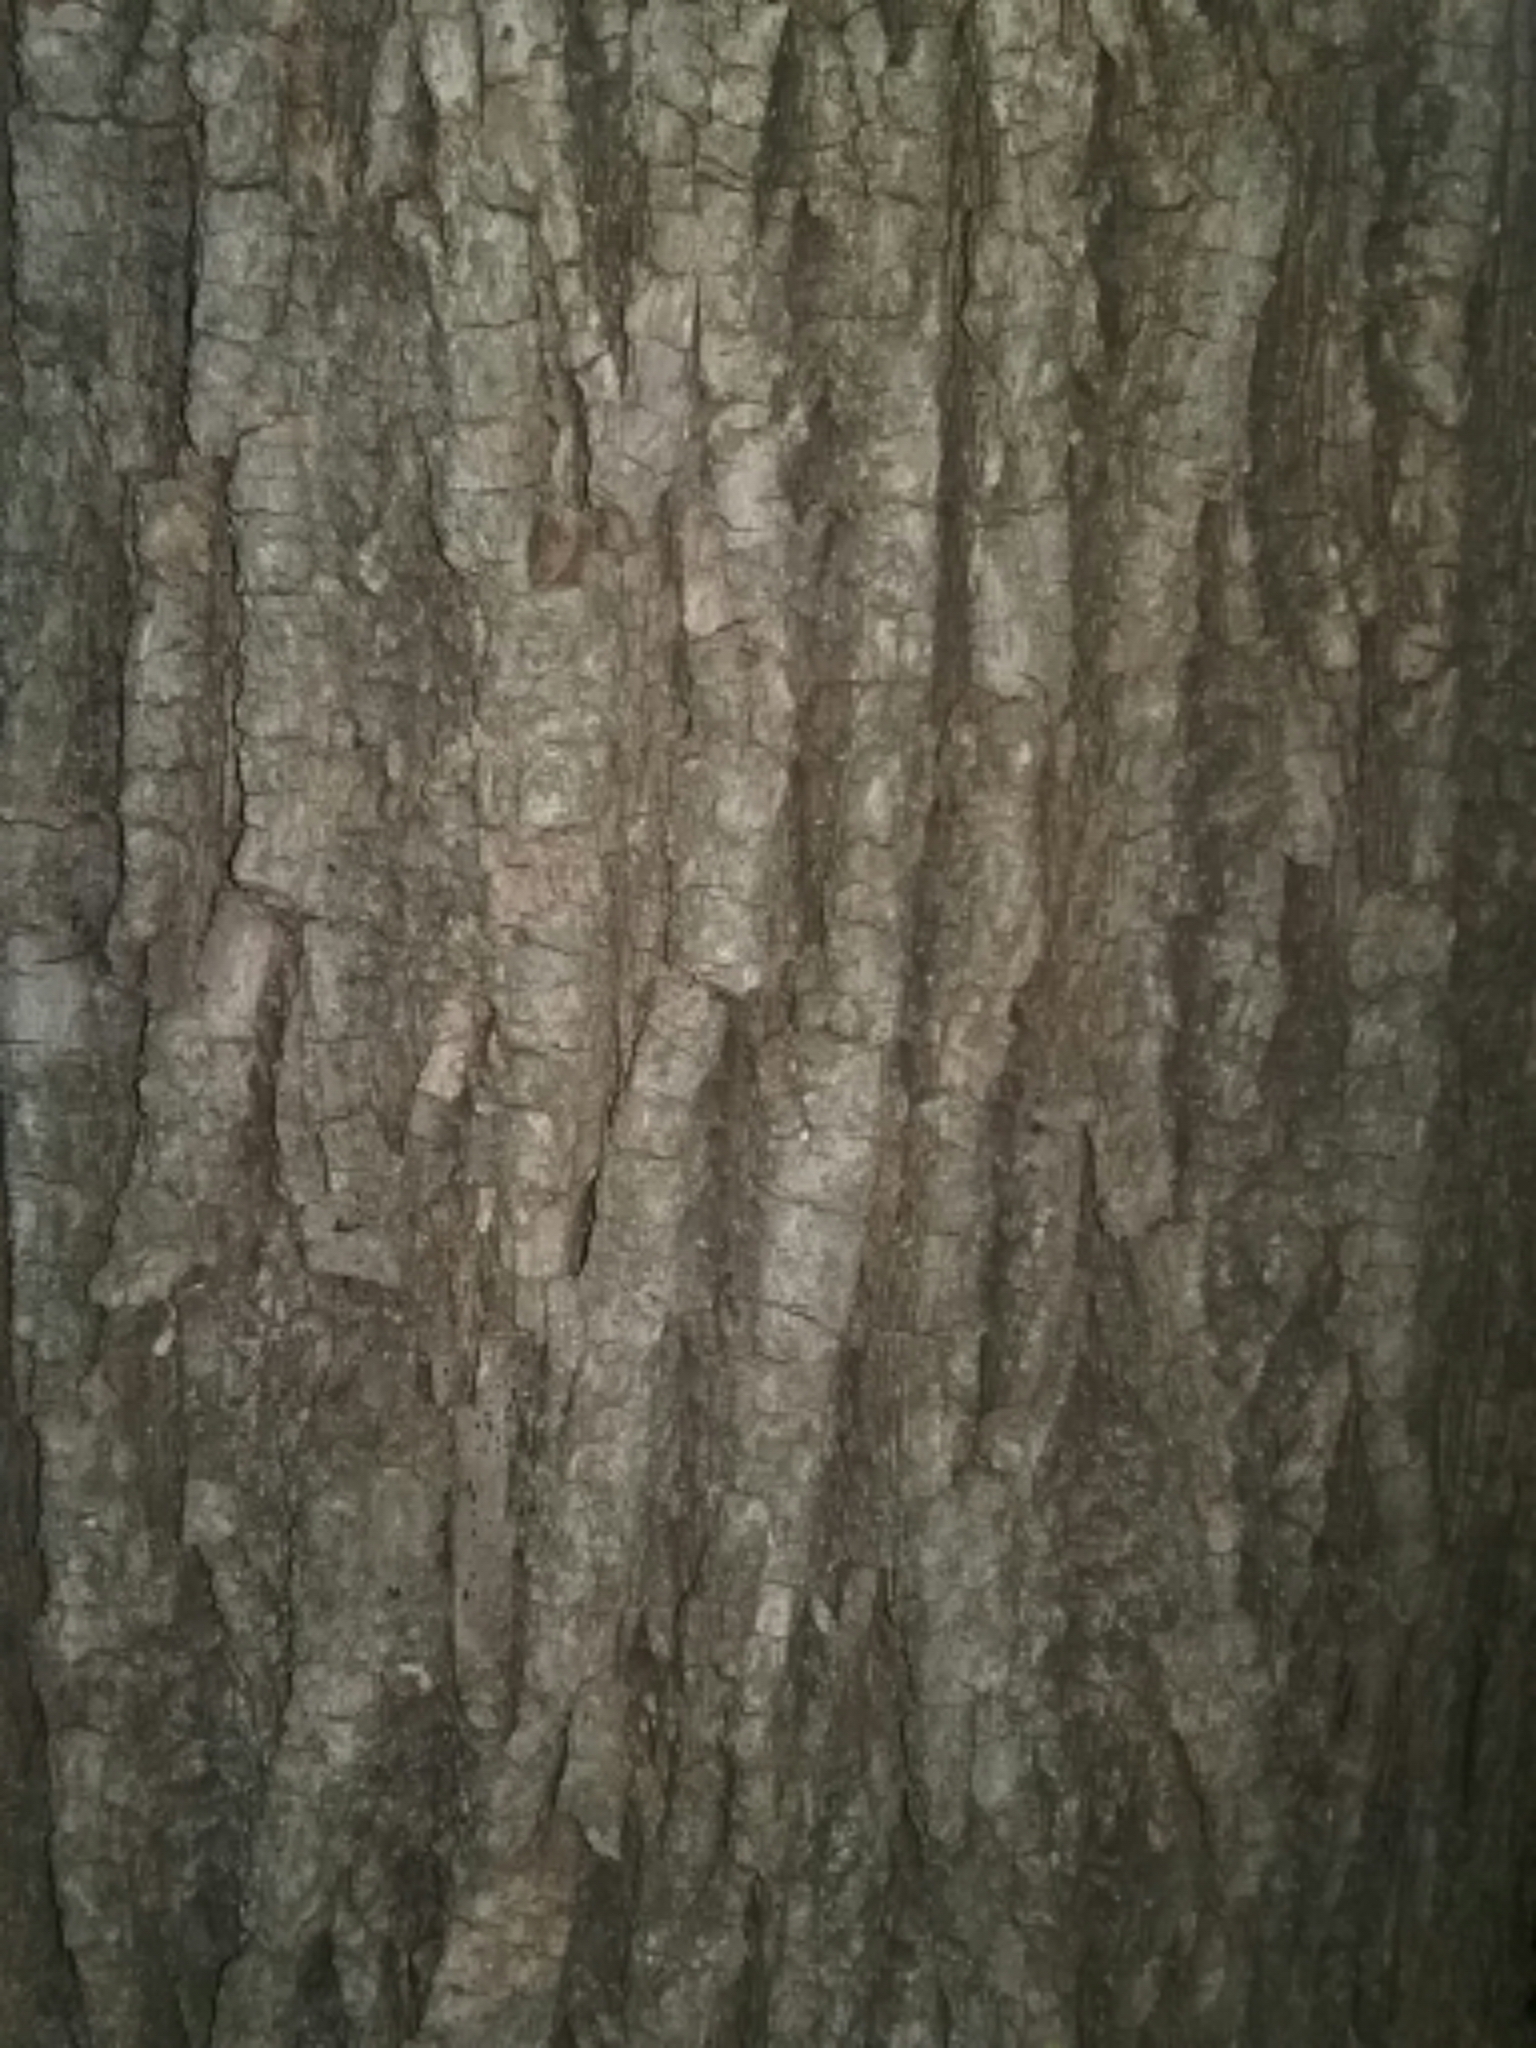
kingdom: Plantae
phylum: Tracheophyta
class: Magnoliopsida
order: Malvales
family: Malvaceae
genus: Tilia
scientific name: Tilia americana
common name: Basswood
